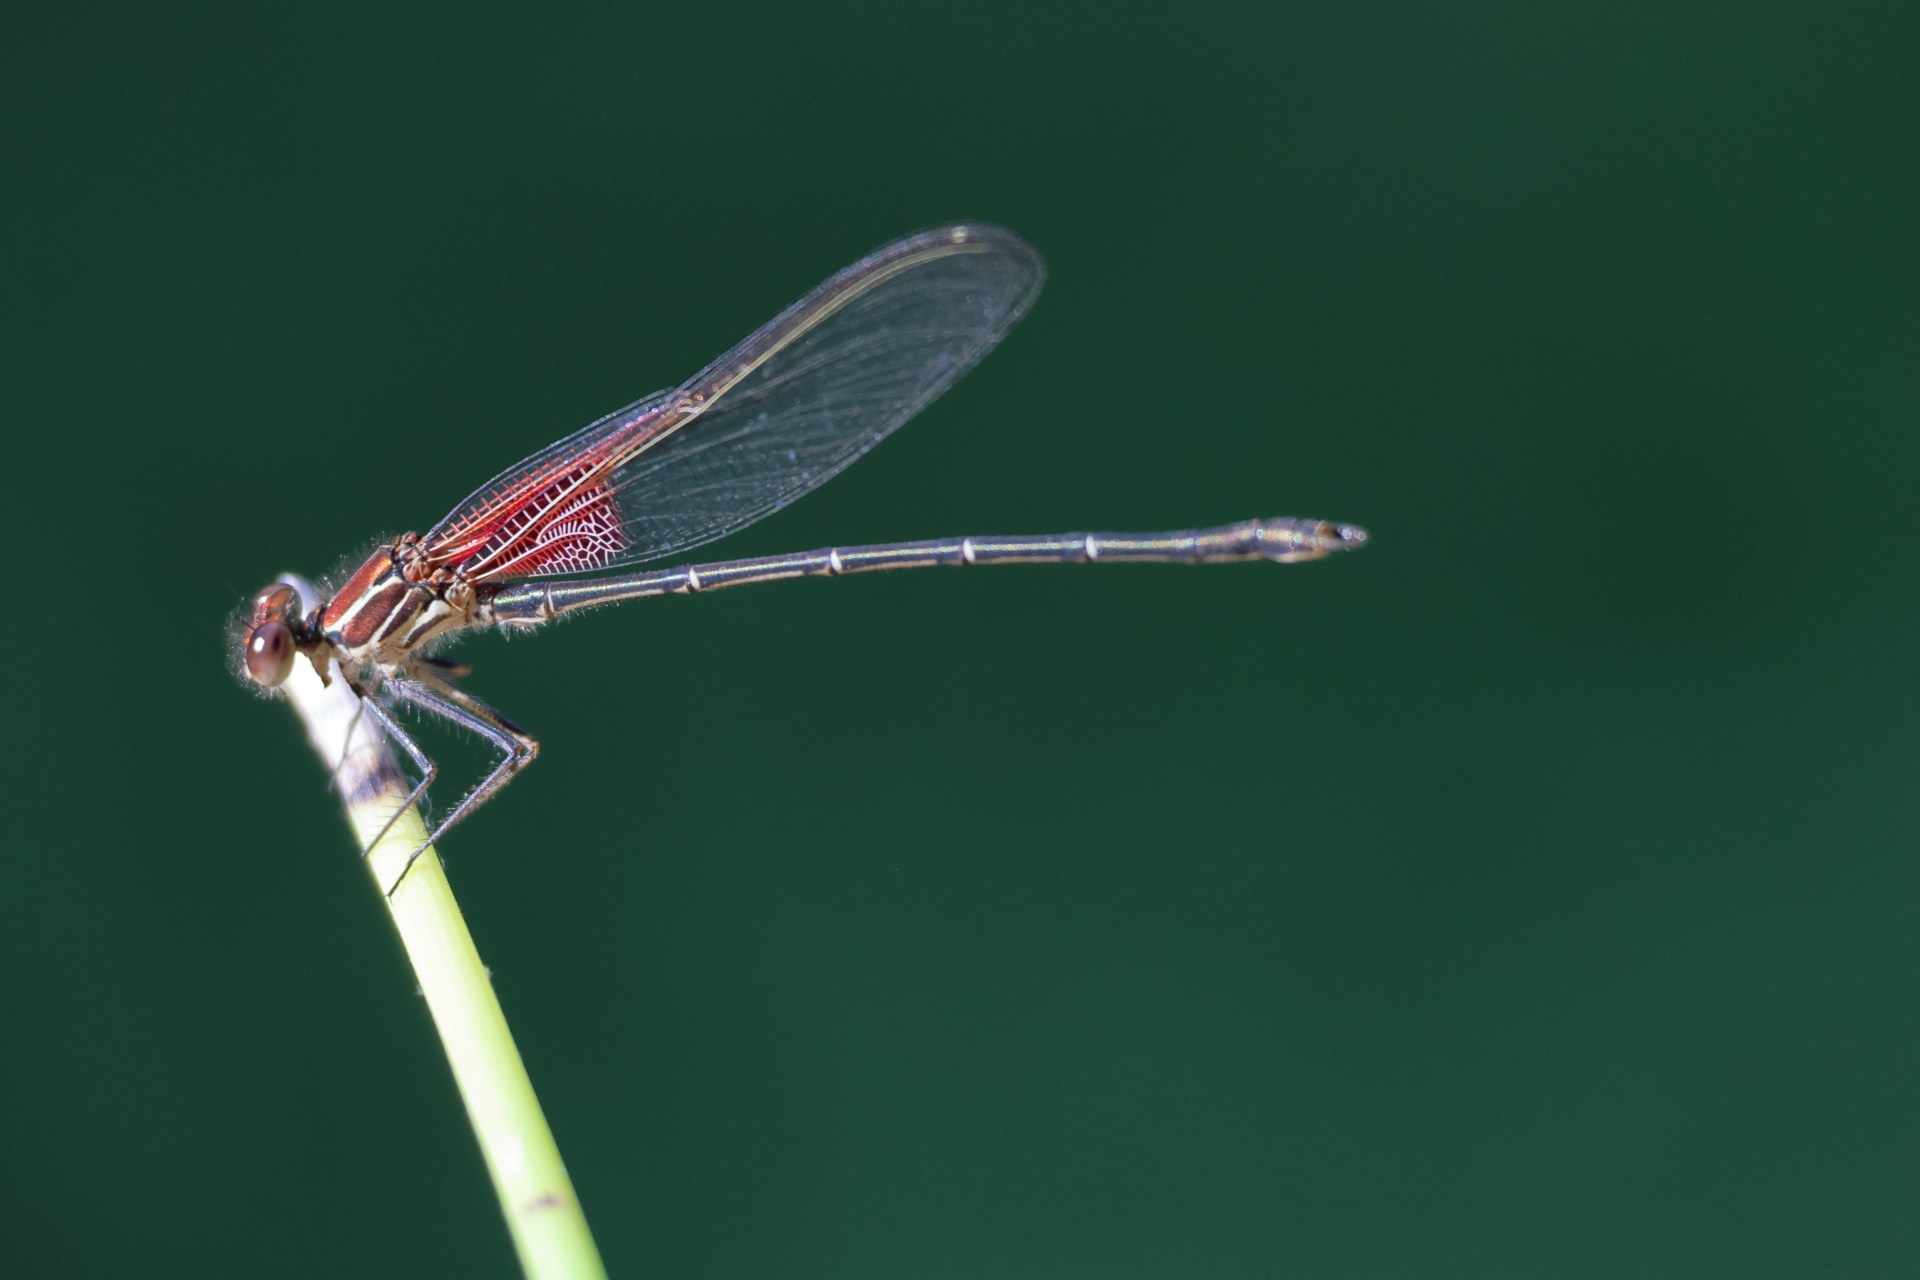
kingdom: Animalia
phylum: Arthropoda
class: Insecta
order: Odonata
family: Calopterygidae
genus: Hetaerina
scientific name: Hetaerina americana
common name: American rubyspot
